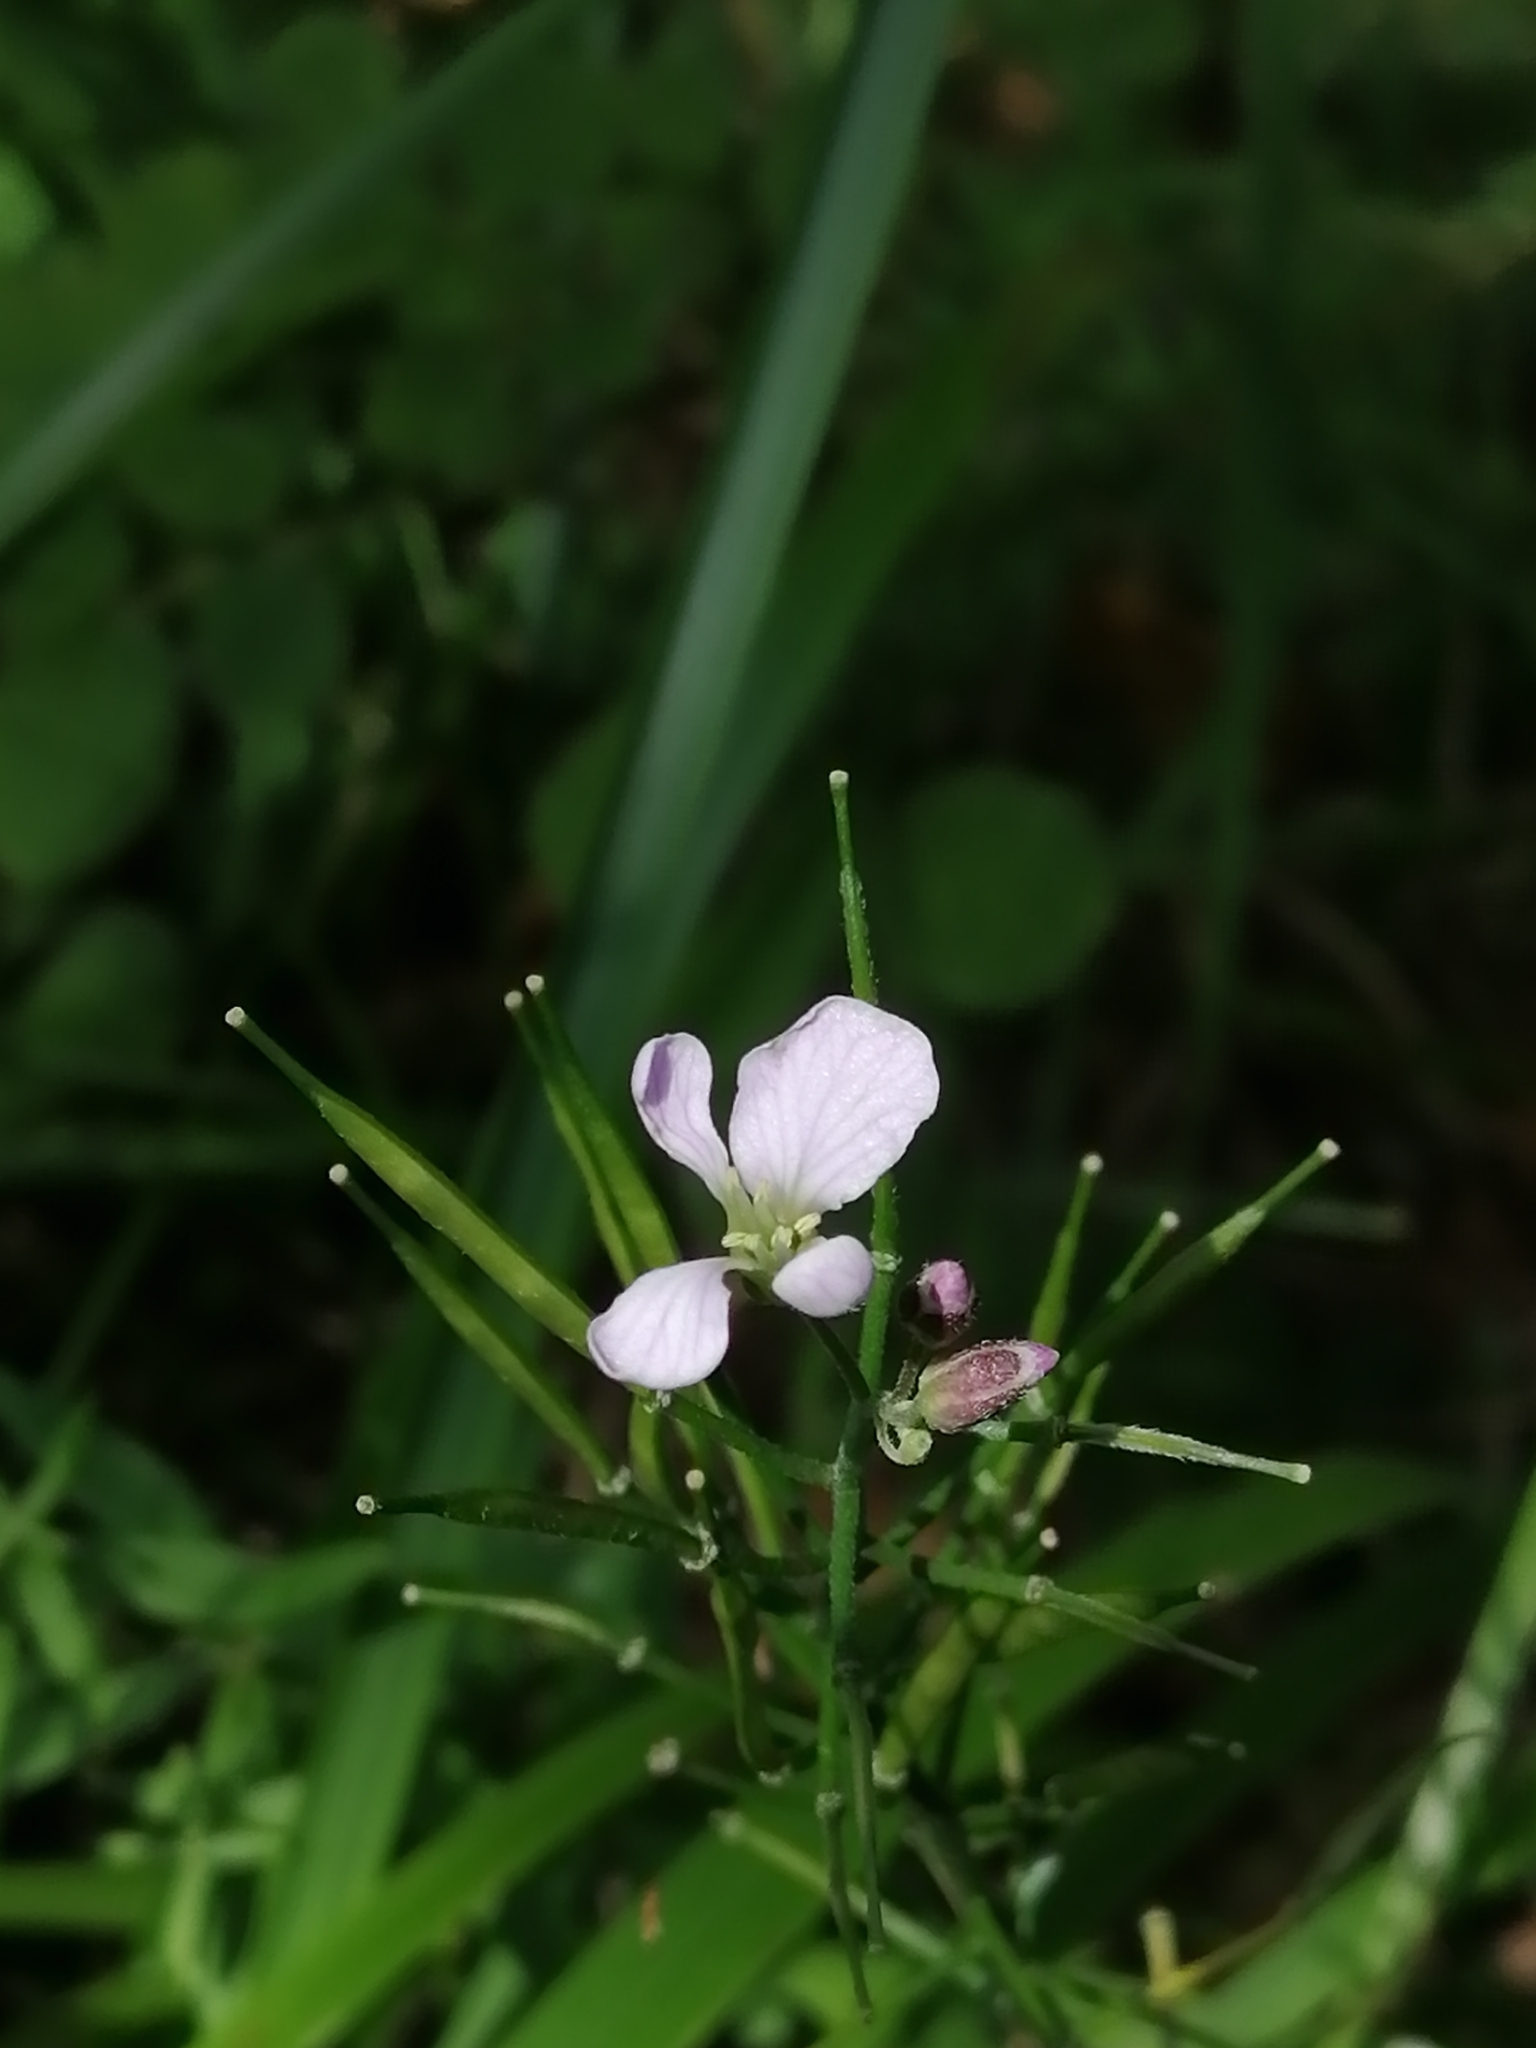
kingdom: Plantae
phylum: Tracheophyta
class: Magnoliopsida
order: Brassicales
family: Brassicaceae
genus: Cardamine
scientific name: Cardamine macrophylla
